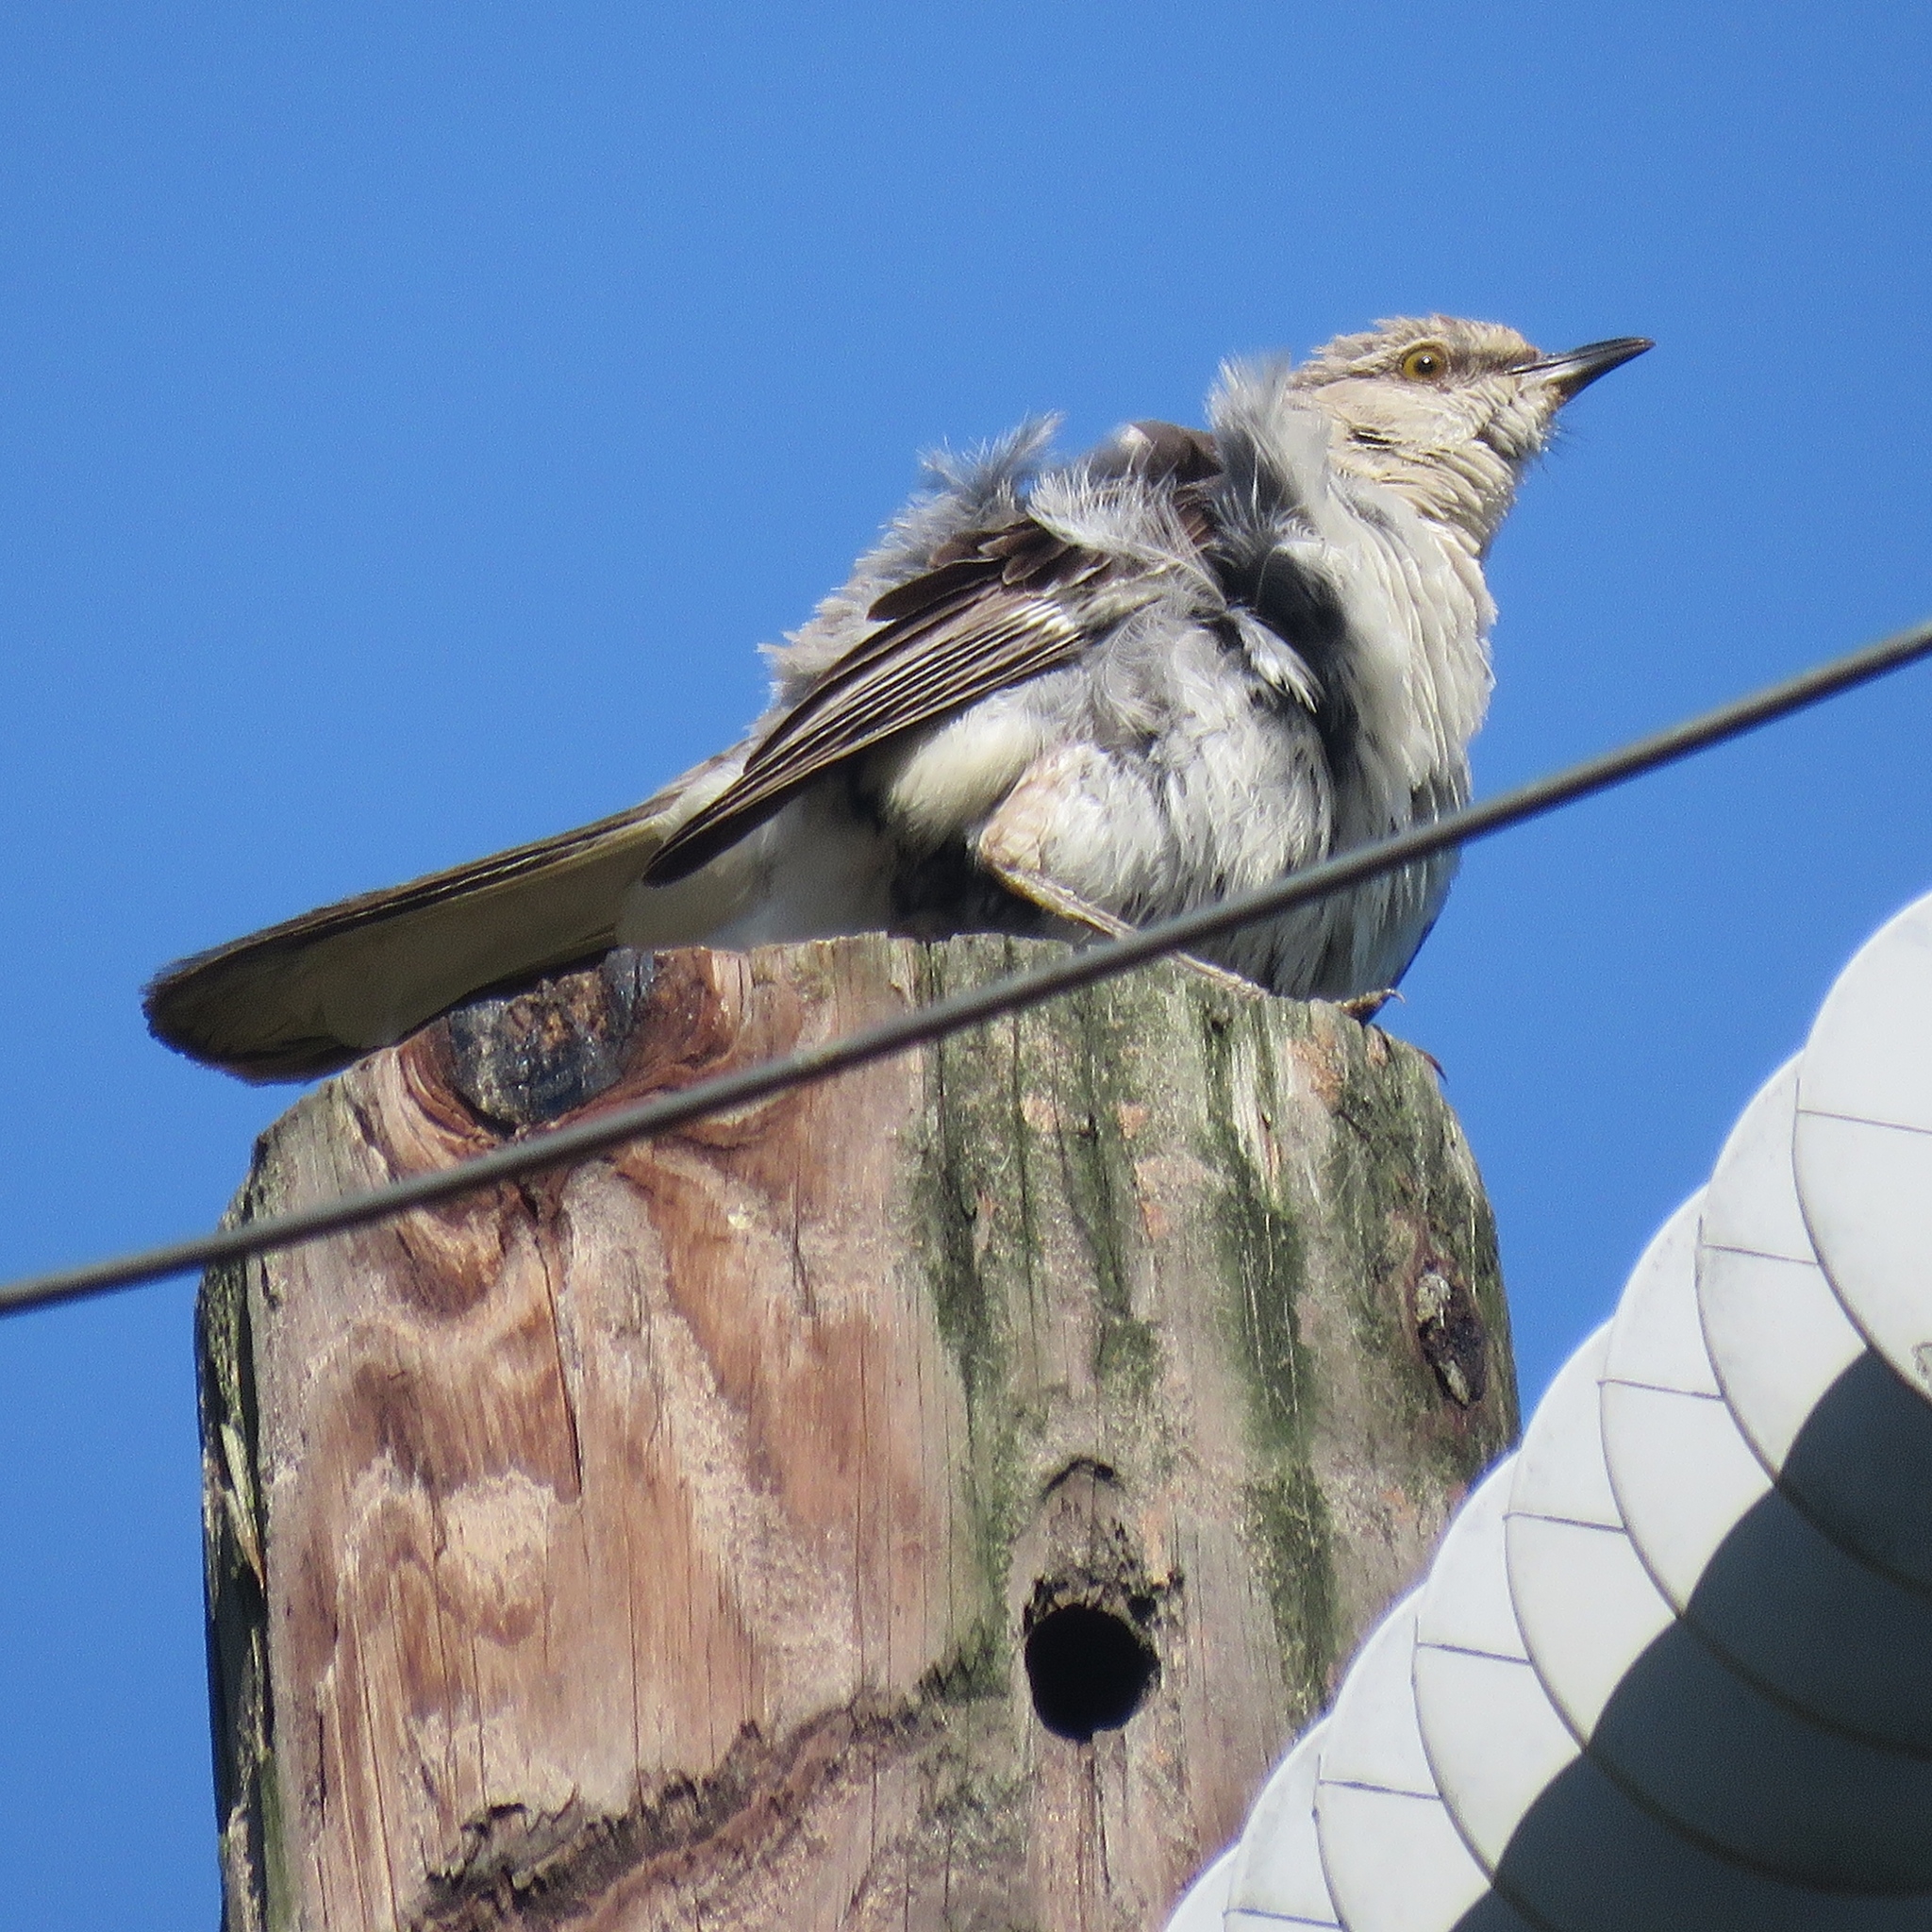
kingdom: Animalia
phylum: Chordata
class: Aves
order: Passeriformes
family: Mimidae
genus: Mimus
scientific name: Mimus polyglottos
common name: Northern mockingbird
